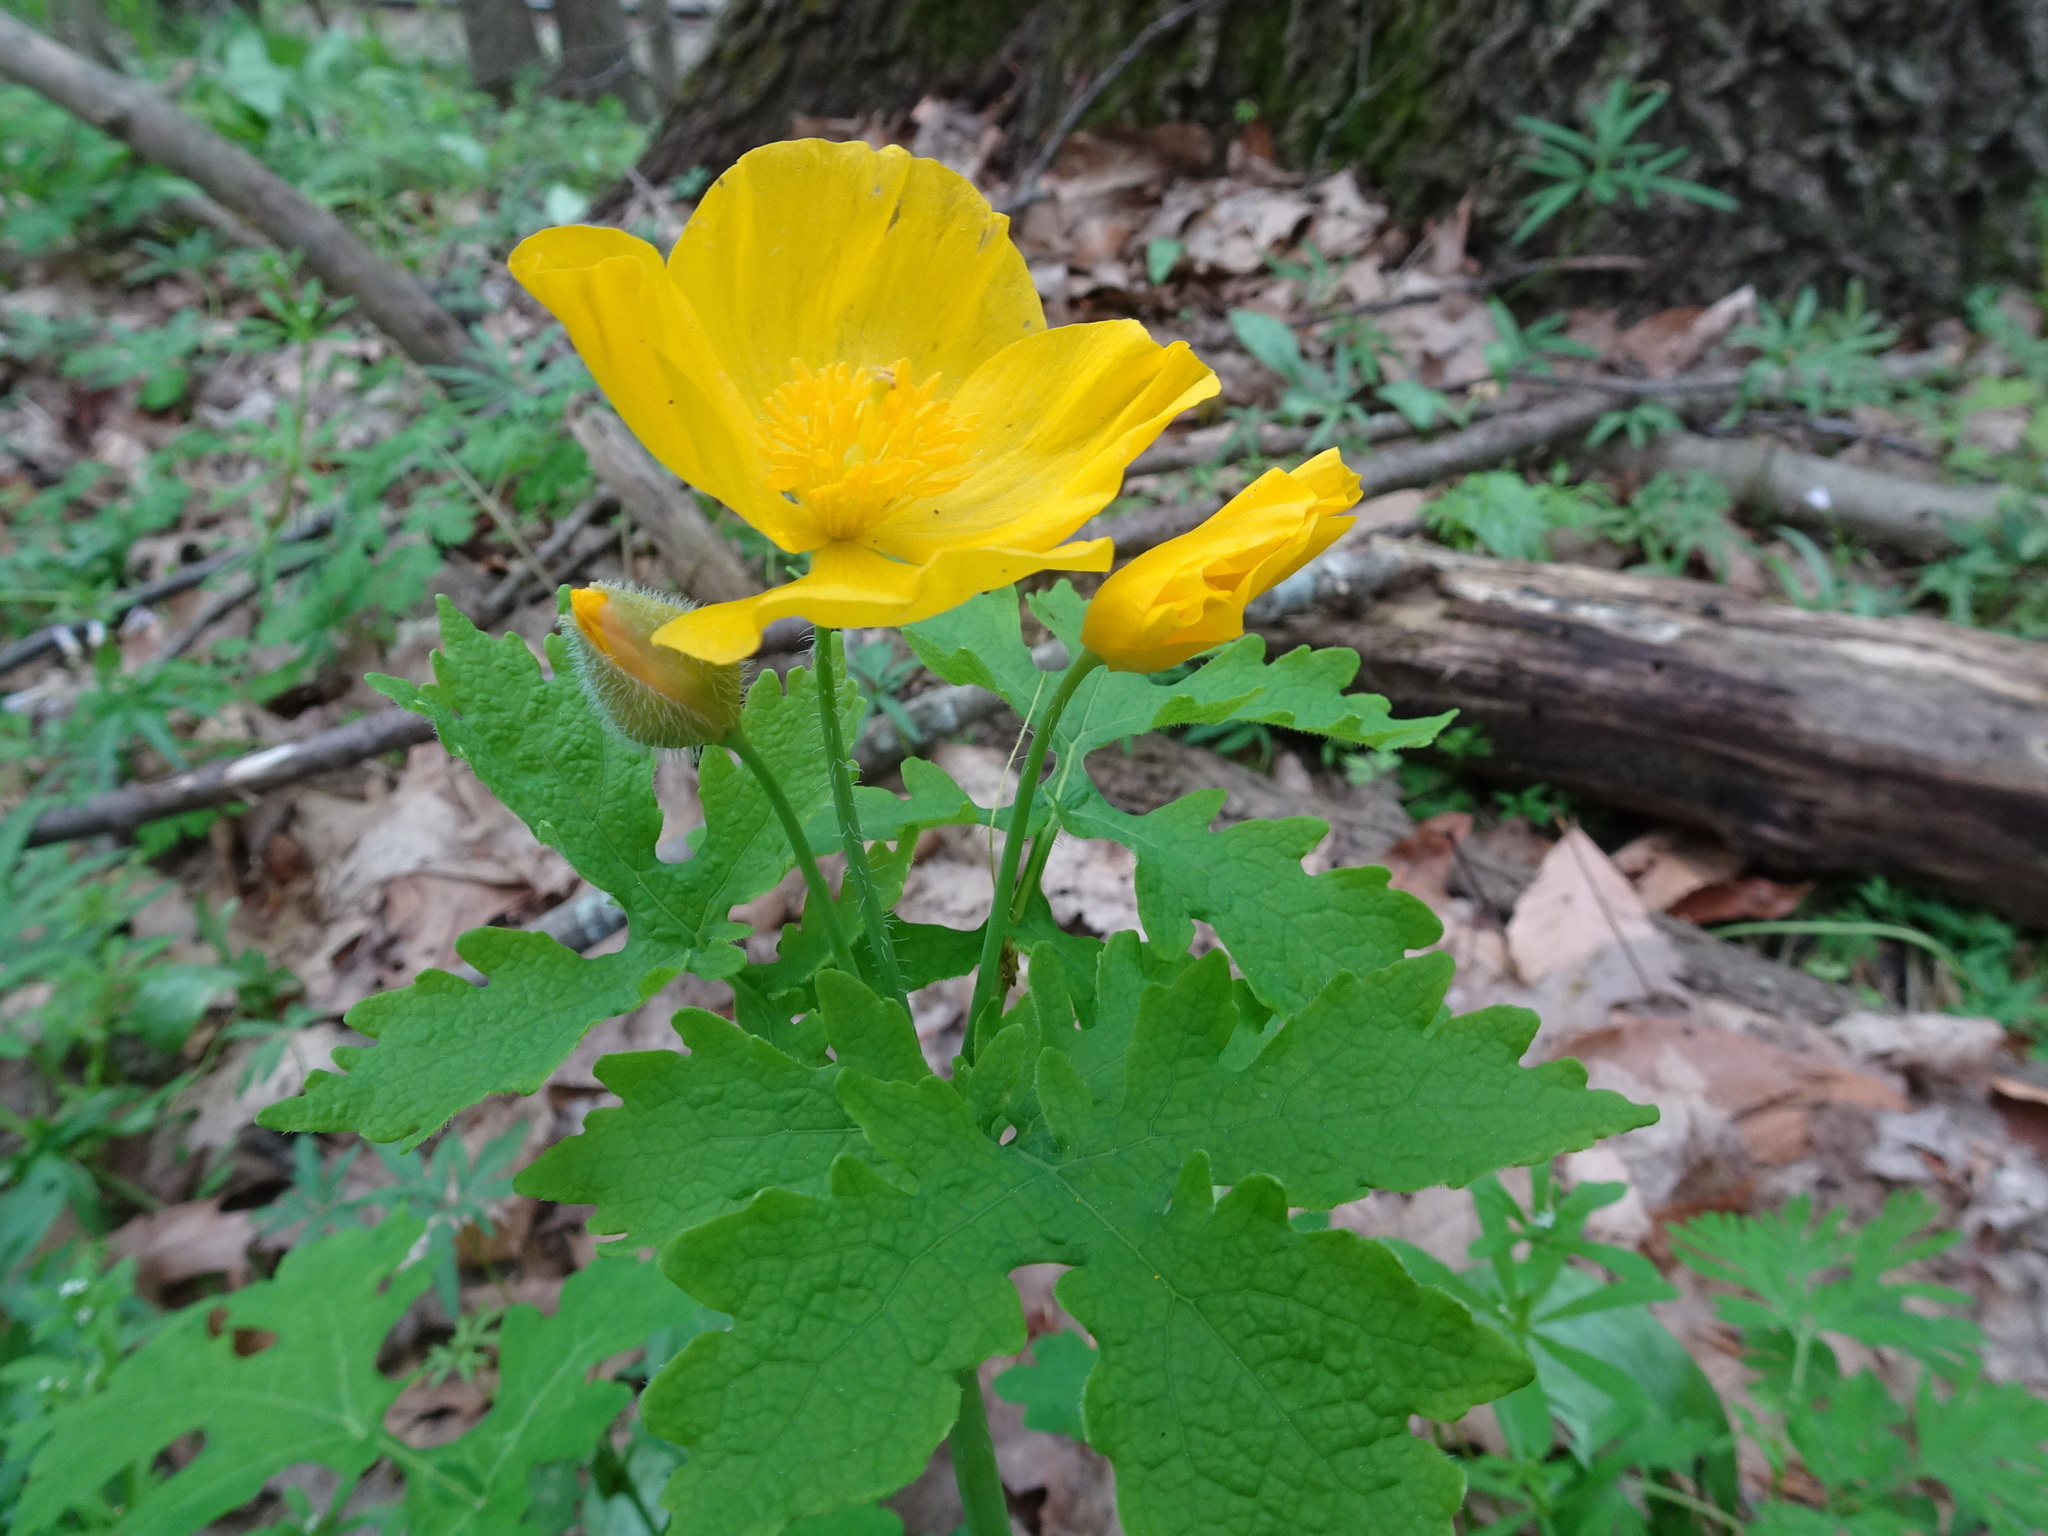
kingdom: Plantae
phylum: Tracheophyta
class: Magnoliopsida
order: Ranunculales
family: Papaveraceae
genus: Stylophorum
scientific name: Stylophorum diphyllum
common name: Celandine poppy
